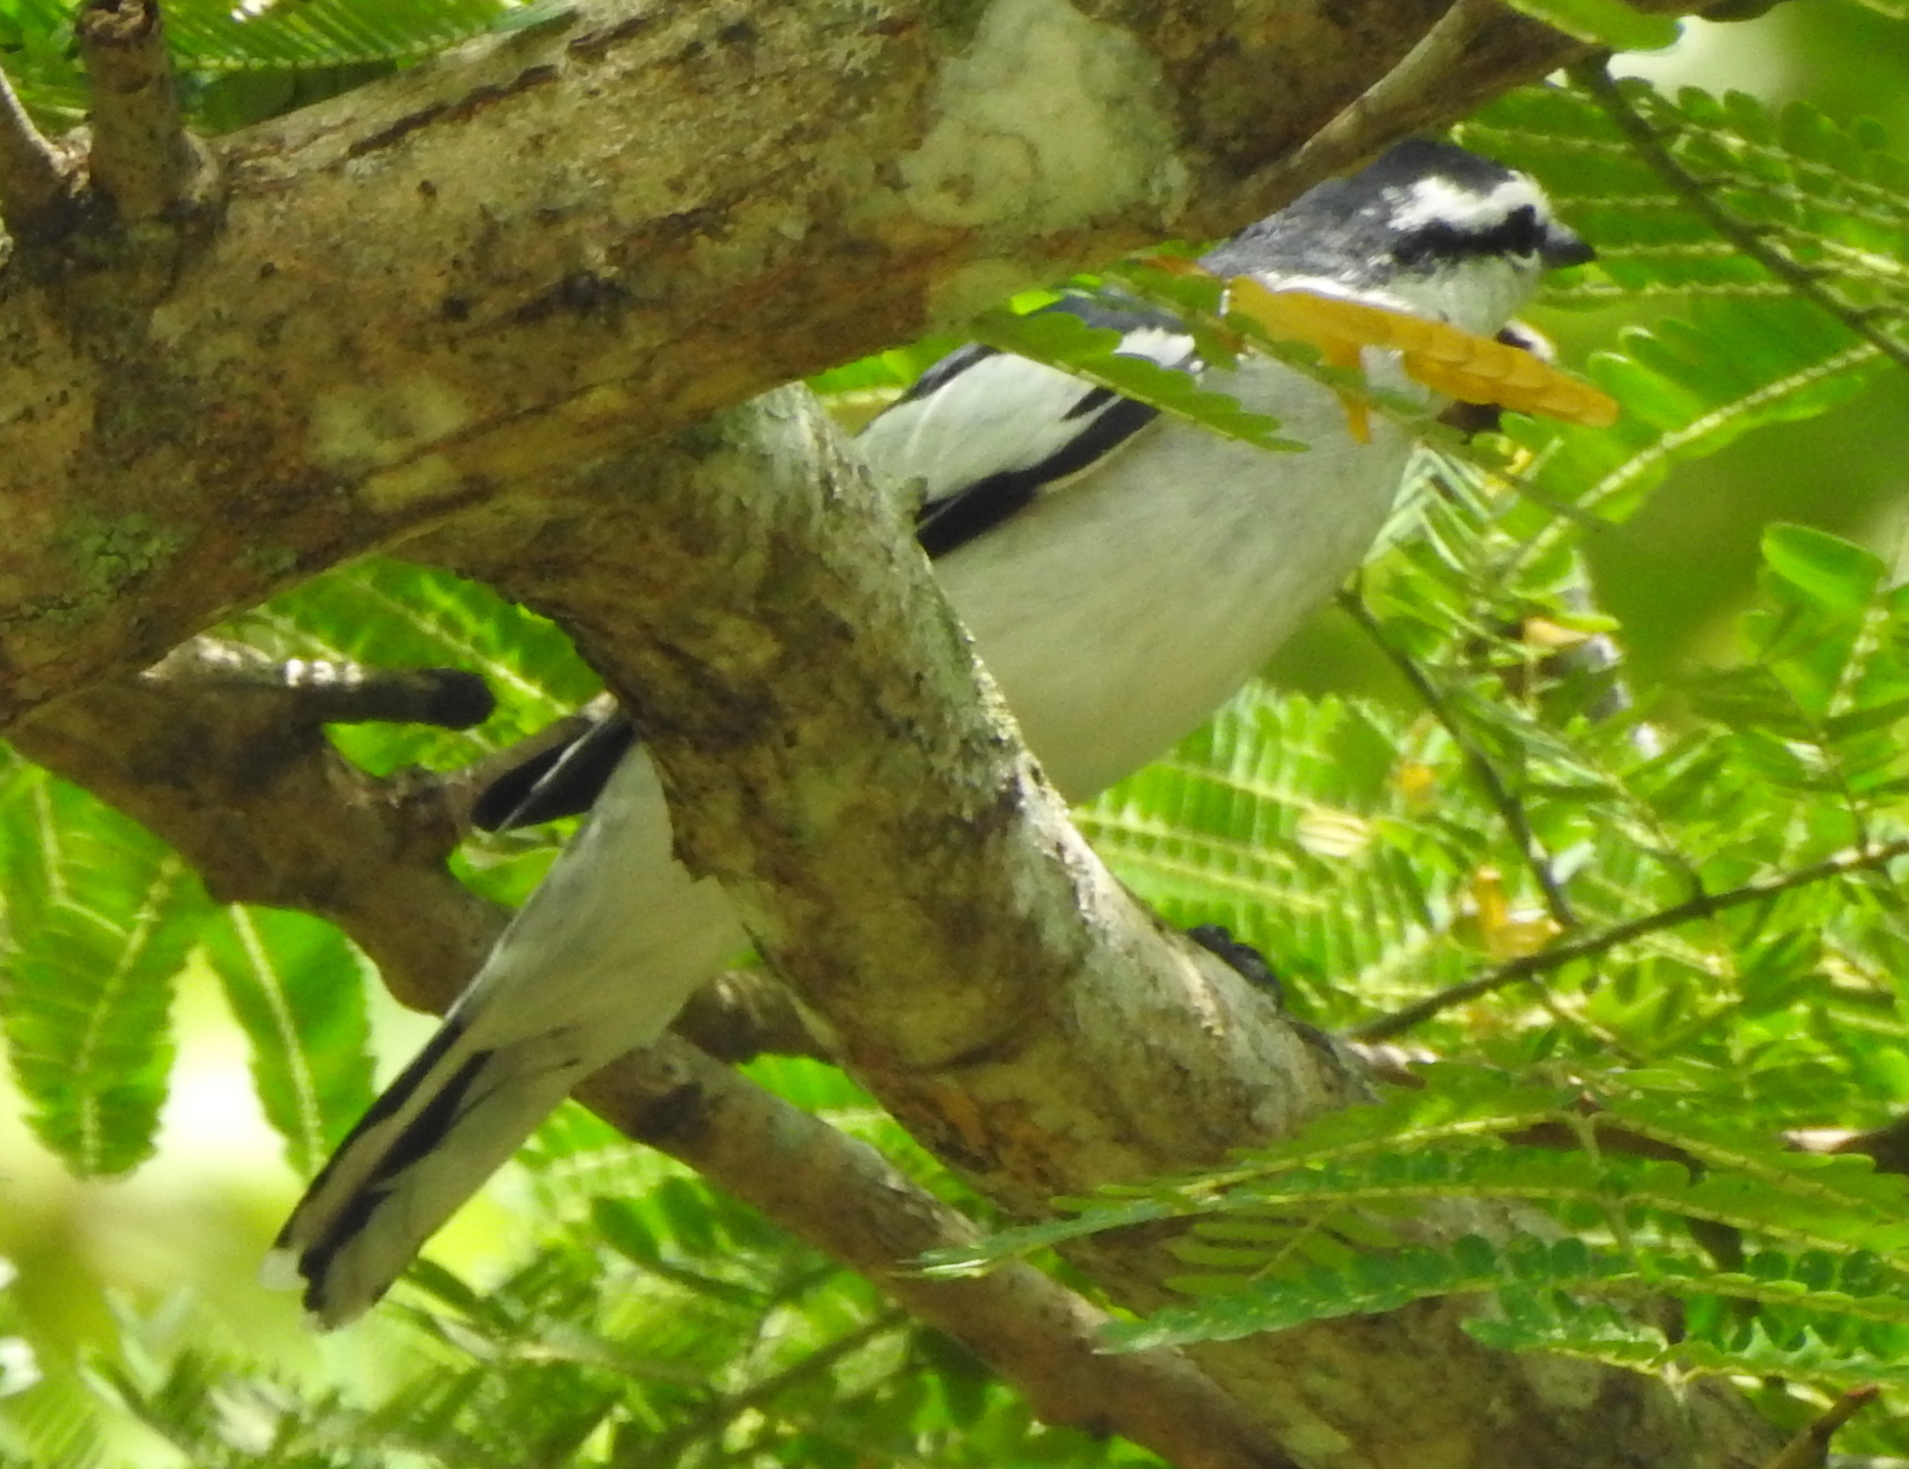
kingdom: Animalia
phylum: Chordata
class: Aves
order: Passeriformes
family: Campephagidae
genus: Lalage
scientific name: Lalage nigra
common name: Pied triller
